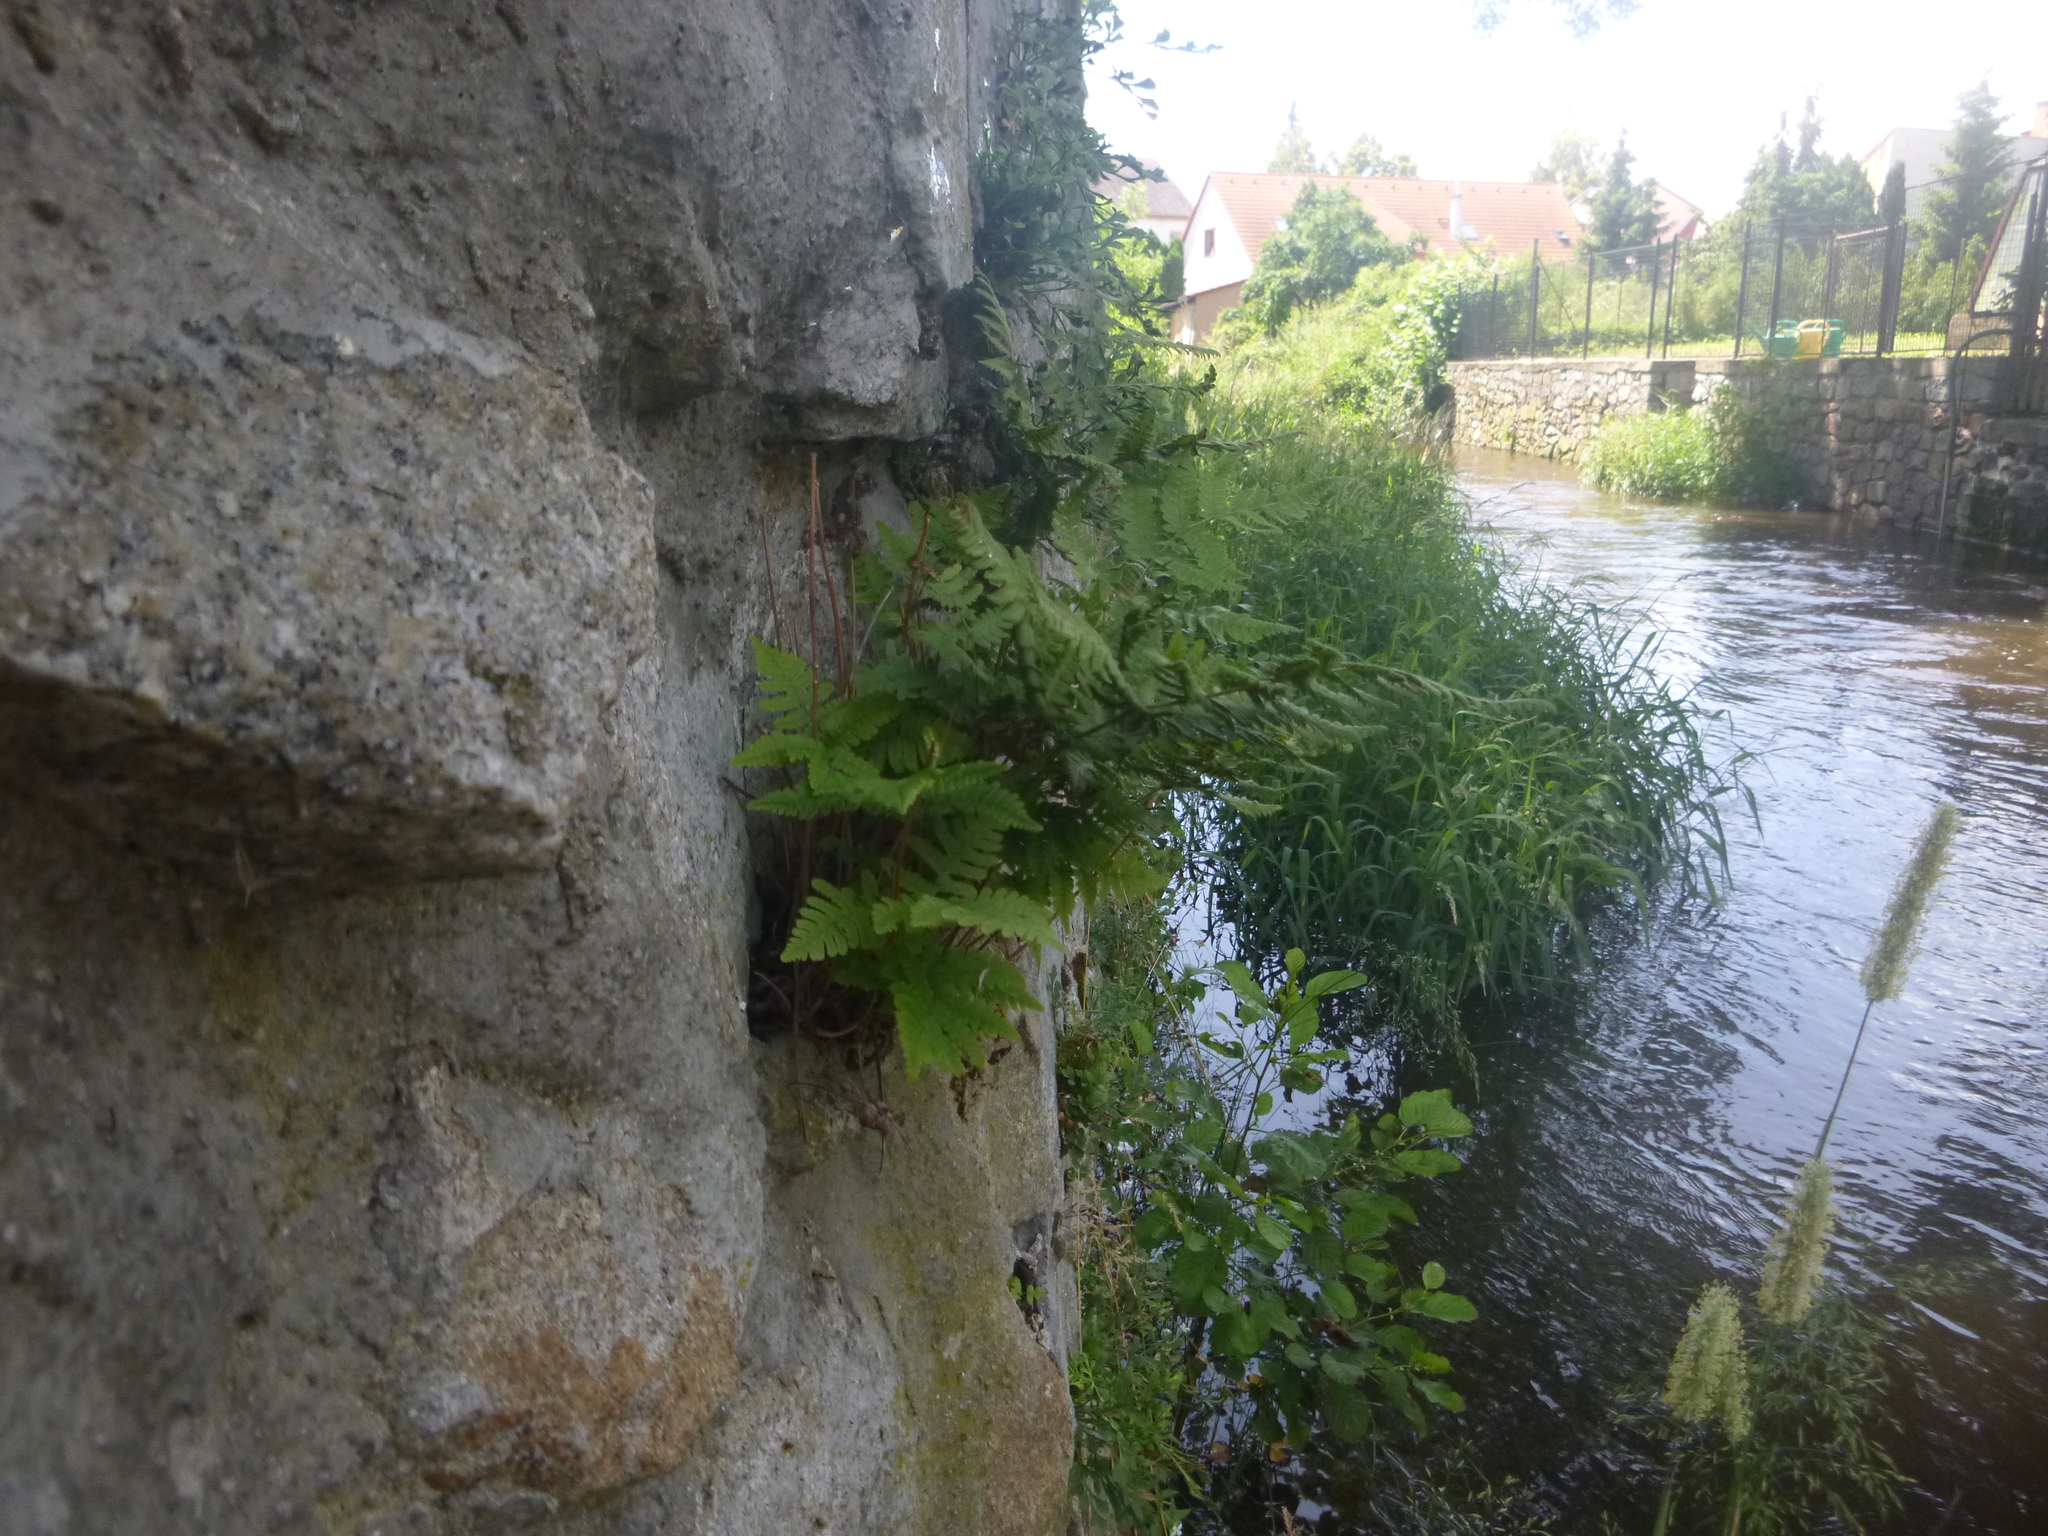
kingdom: Plantae
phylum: Tracheophyta
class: Polypodiopsida
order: Polypodiales
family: Cystopteridaceae
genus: Gymnocarpium
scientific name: Gymnocarpium robertianum
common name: Limestone fern
